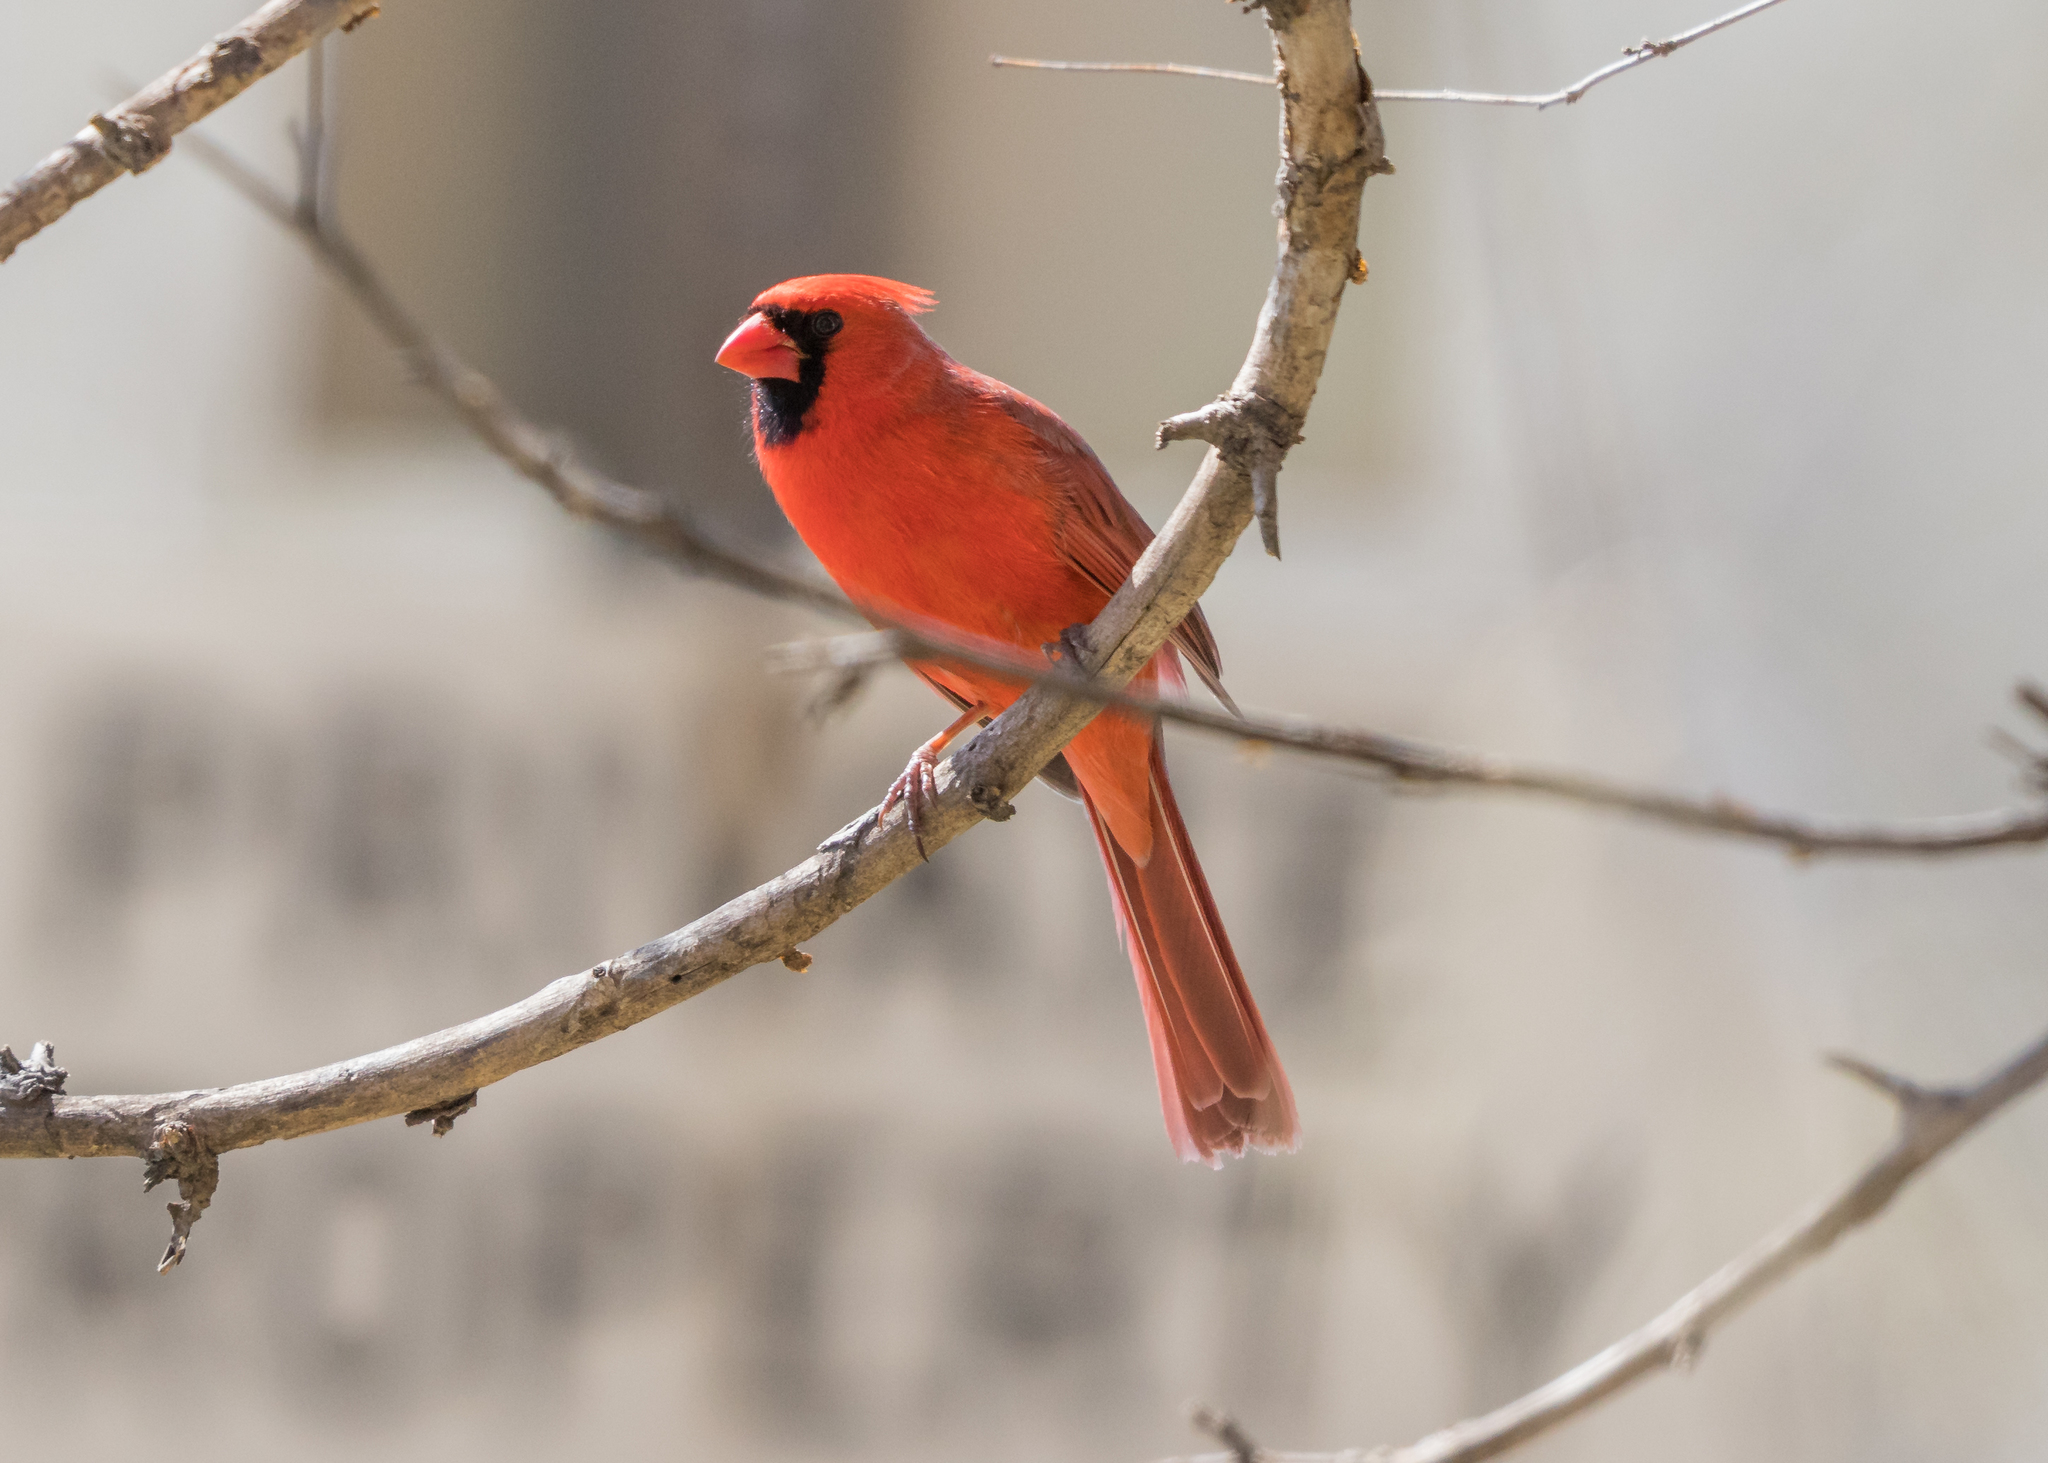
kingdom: Animalia
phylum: Chordata
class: Aves
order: Passeriformes
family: Cardinalidae
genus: Cardinalis
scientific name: Cardinalis cardinalis
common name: Northern cardinal
